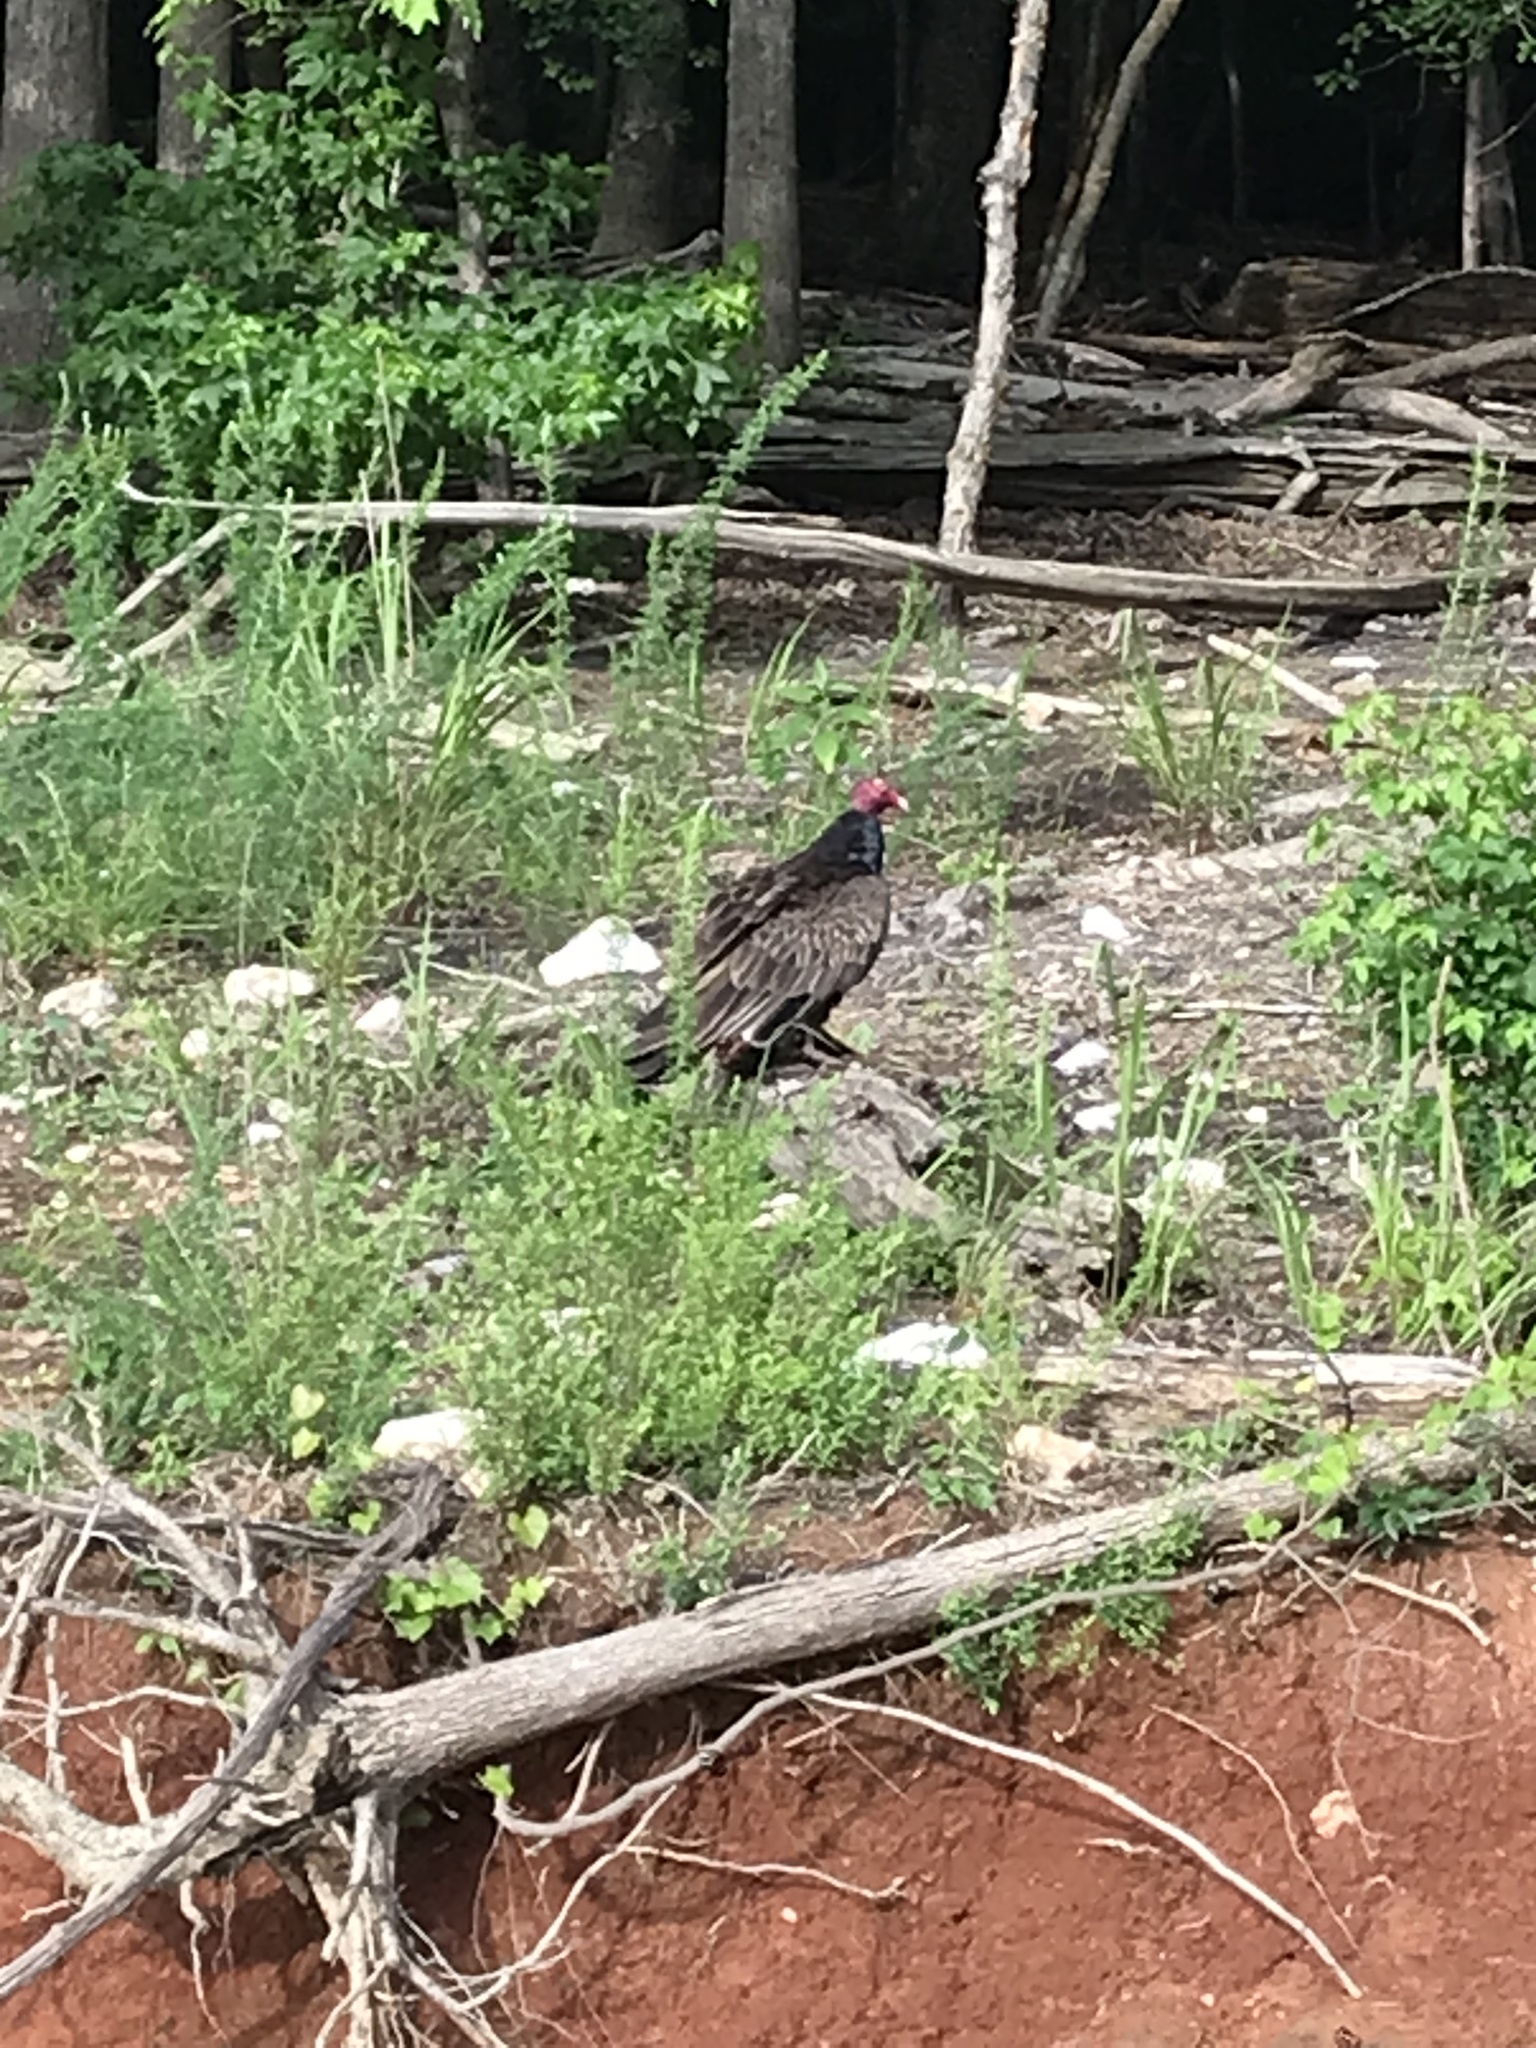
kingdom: Animalia
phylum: Chordata
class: Aves
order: Accipitriformes
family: Cathartidae
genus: Cathartes
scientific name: Cathartes aura
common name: Turkey vulture
